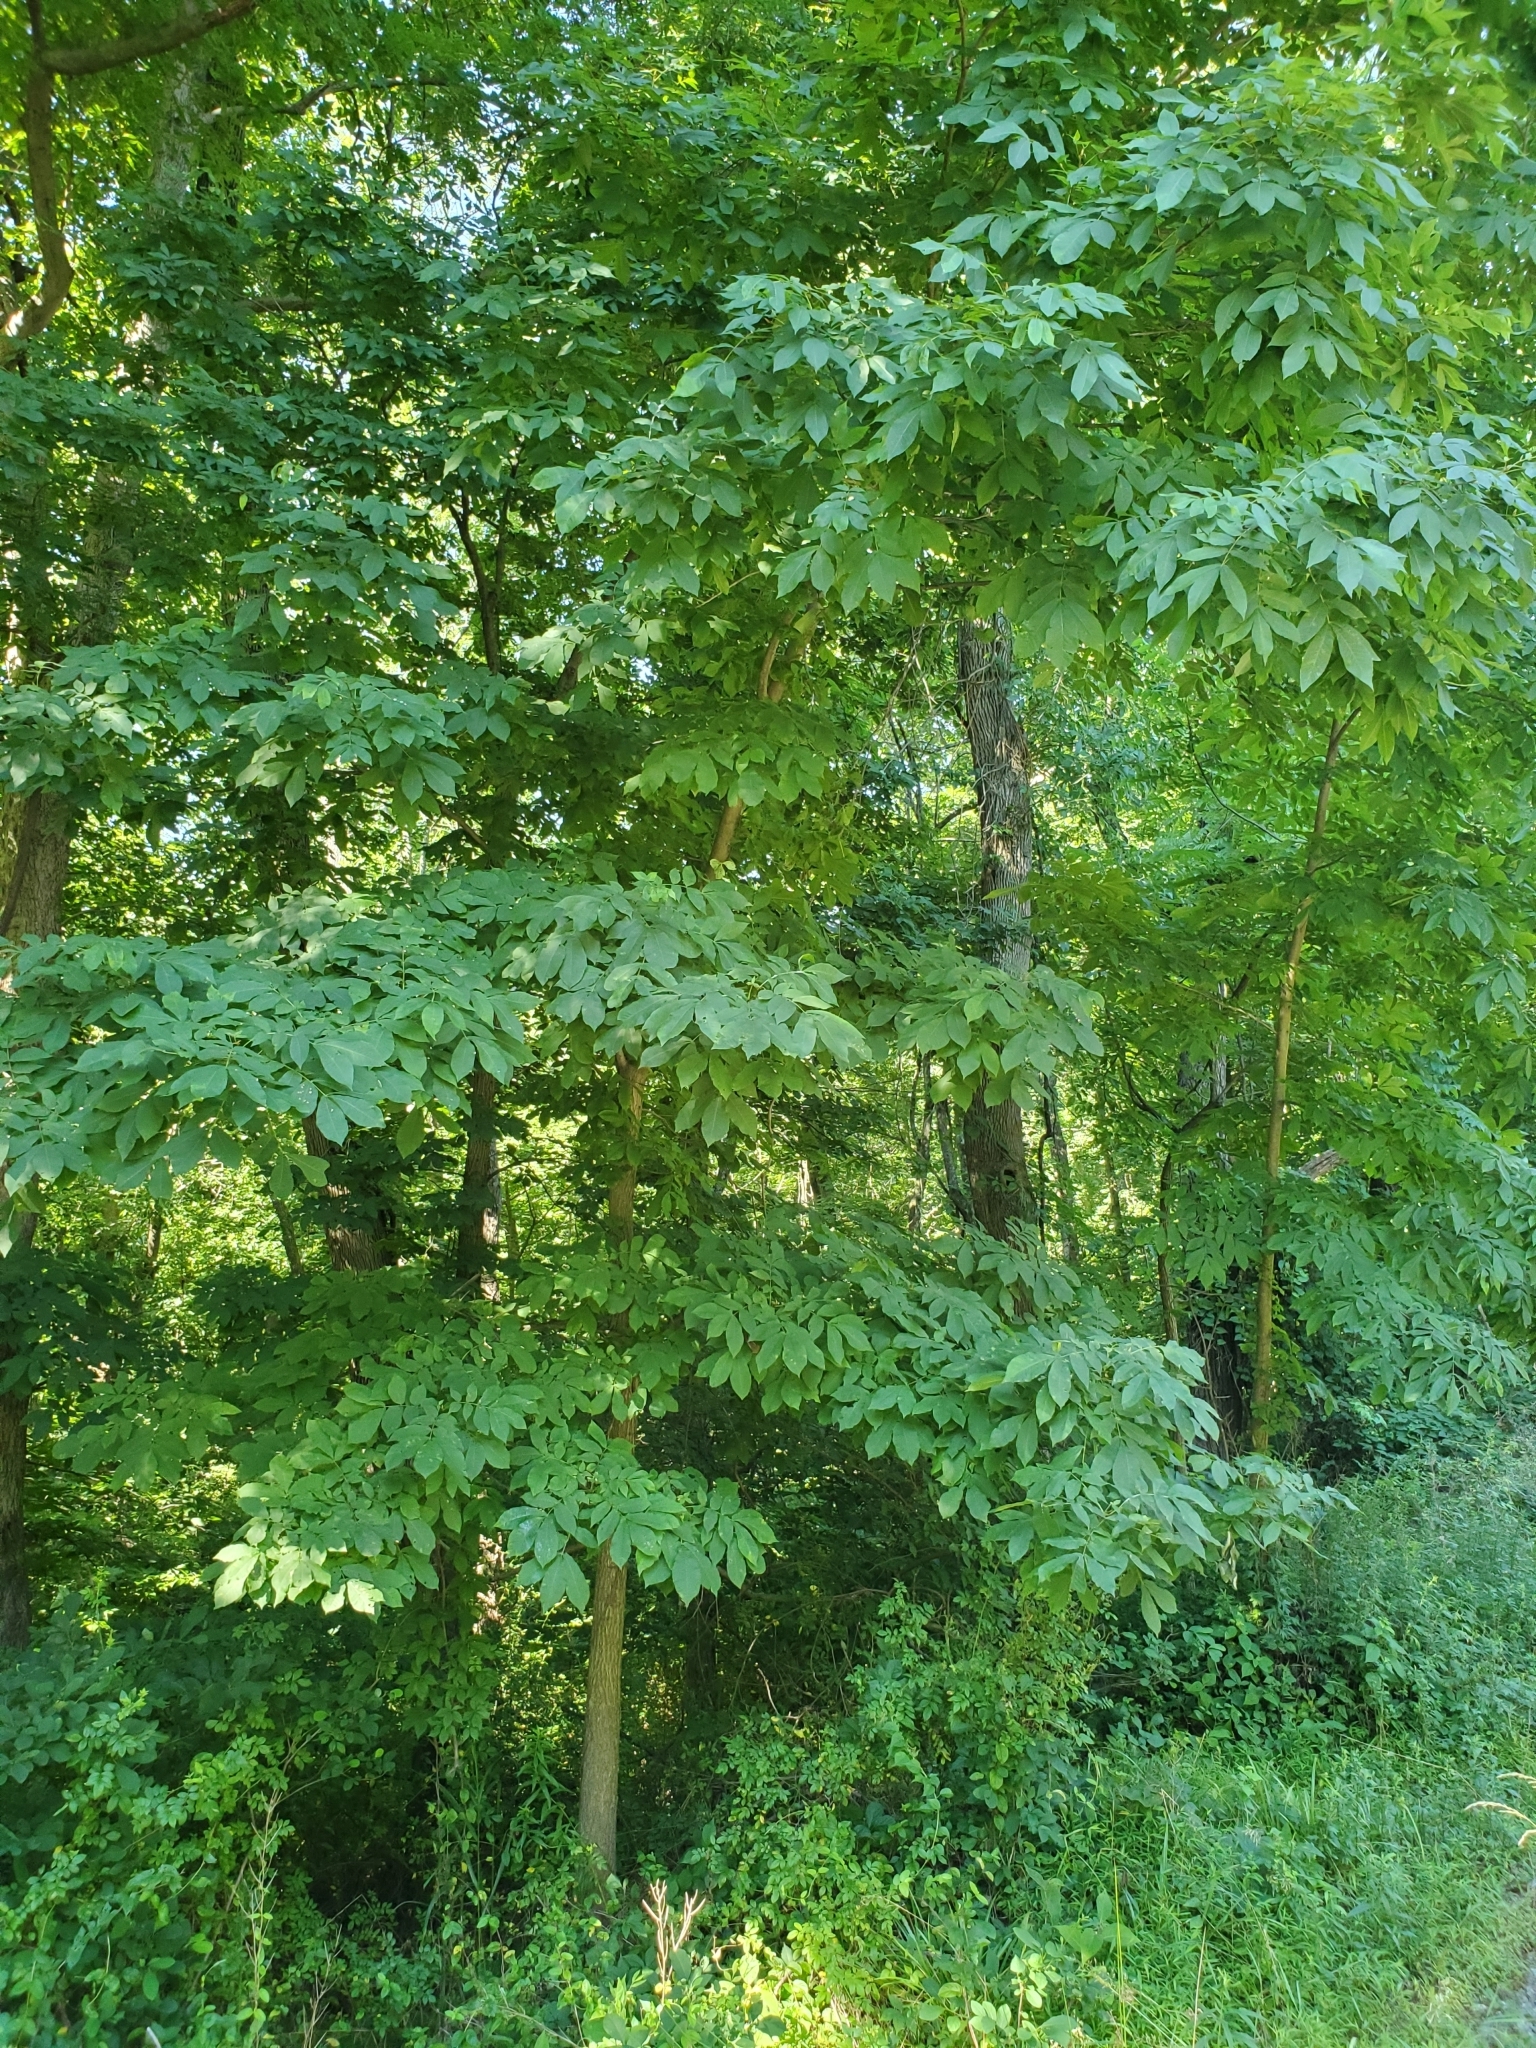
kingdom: Plantae
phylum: Tracheophyta
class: Magnoliopsida
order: Fagales
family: Juglandaceae
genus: Carya
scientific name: Carya cordiformis
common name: Bitternut hickory
